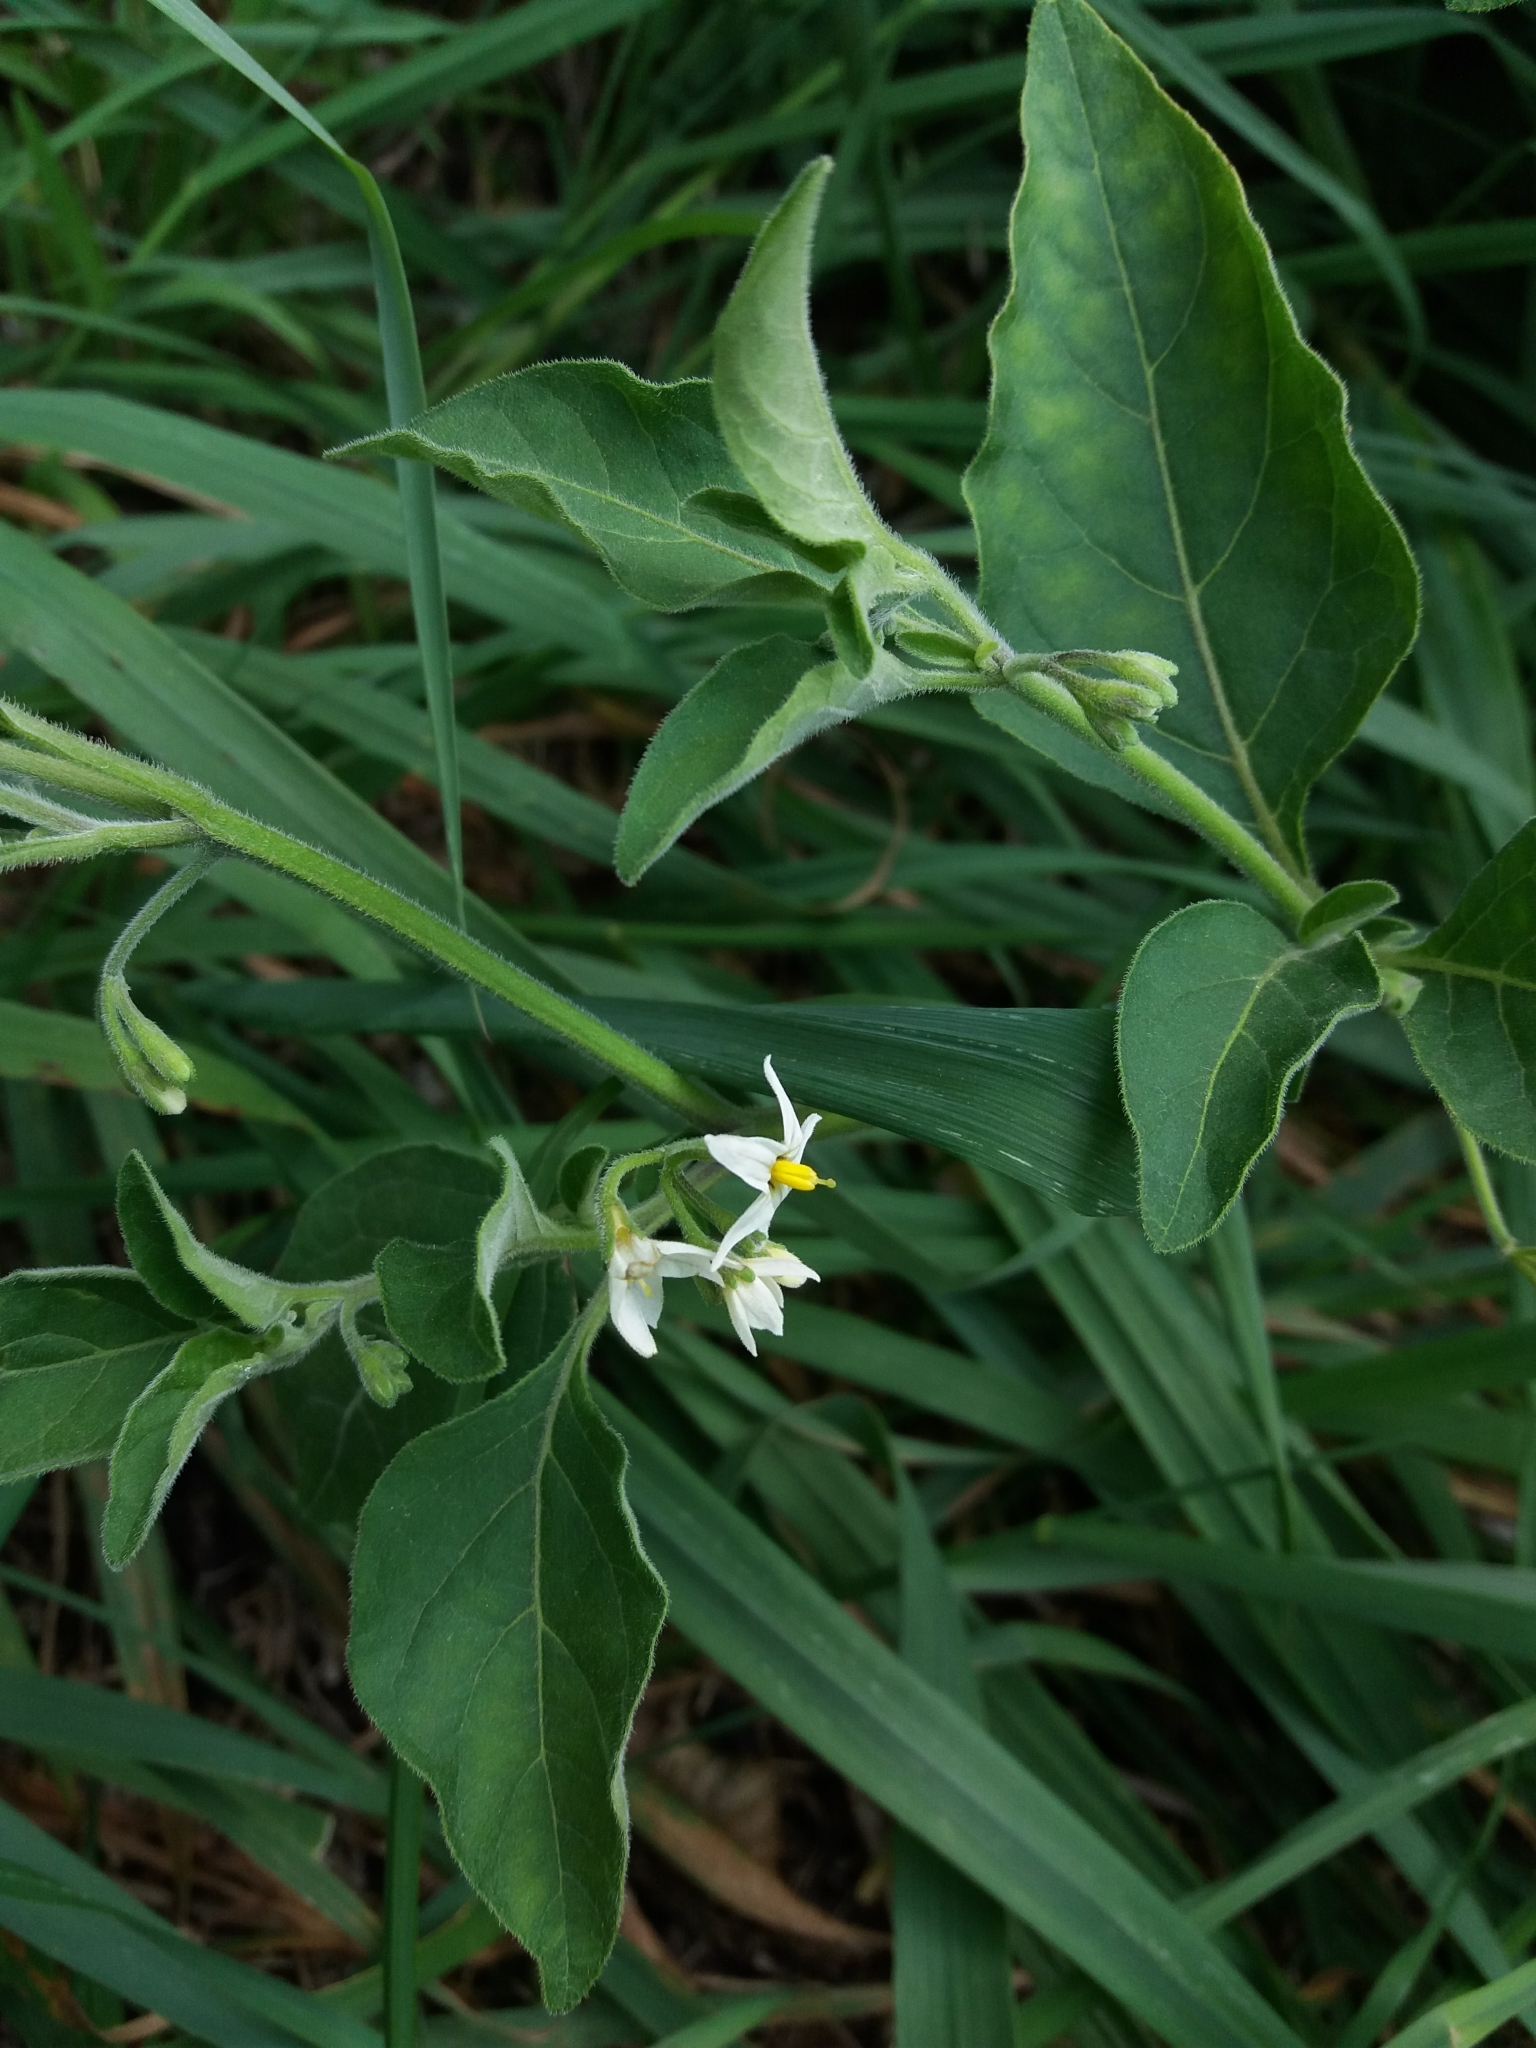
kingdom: Plantae
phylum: Tracheophyta
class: Magnoliopsida
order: Solanales
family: Solanaceae
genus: Solanum
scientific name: Solanum chenopodioides
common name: Tall nightshade
